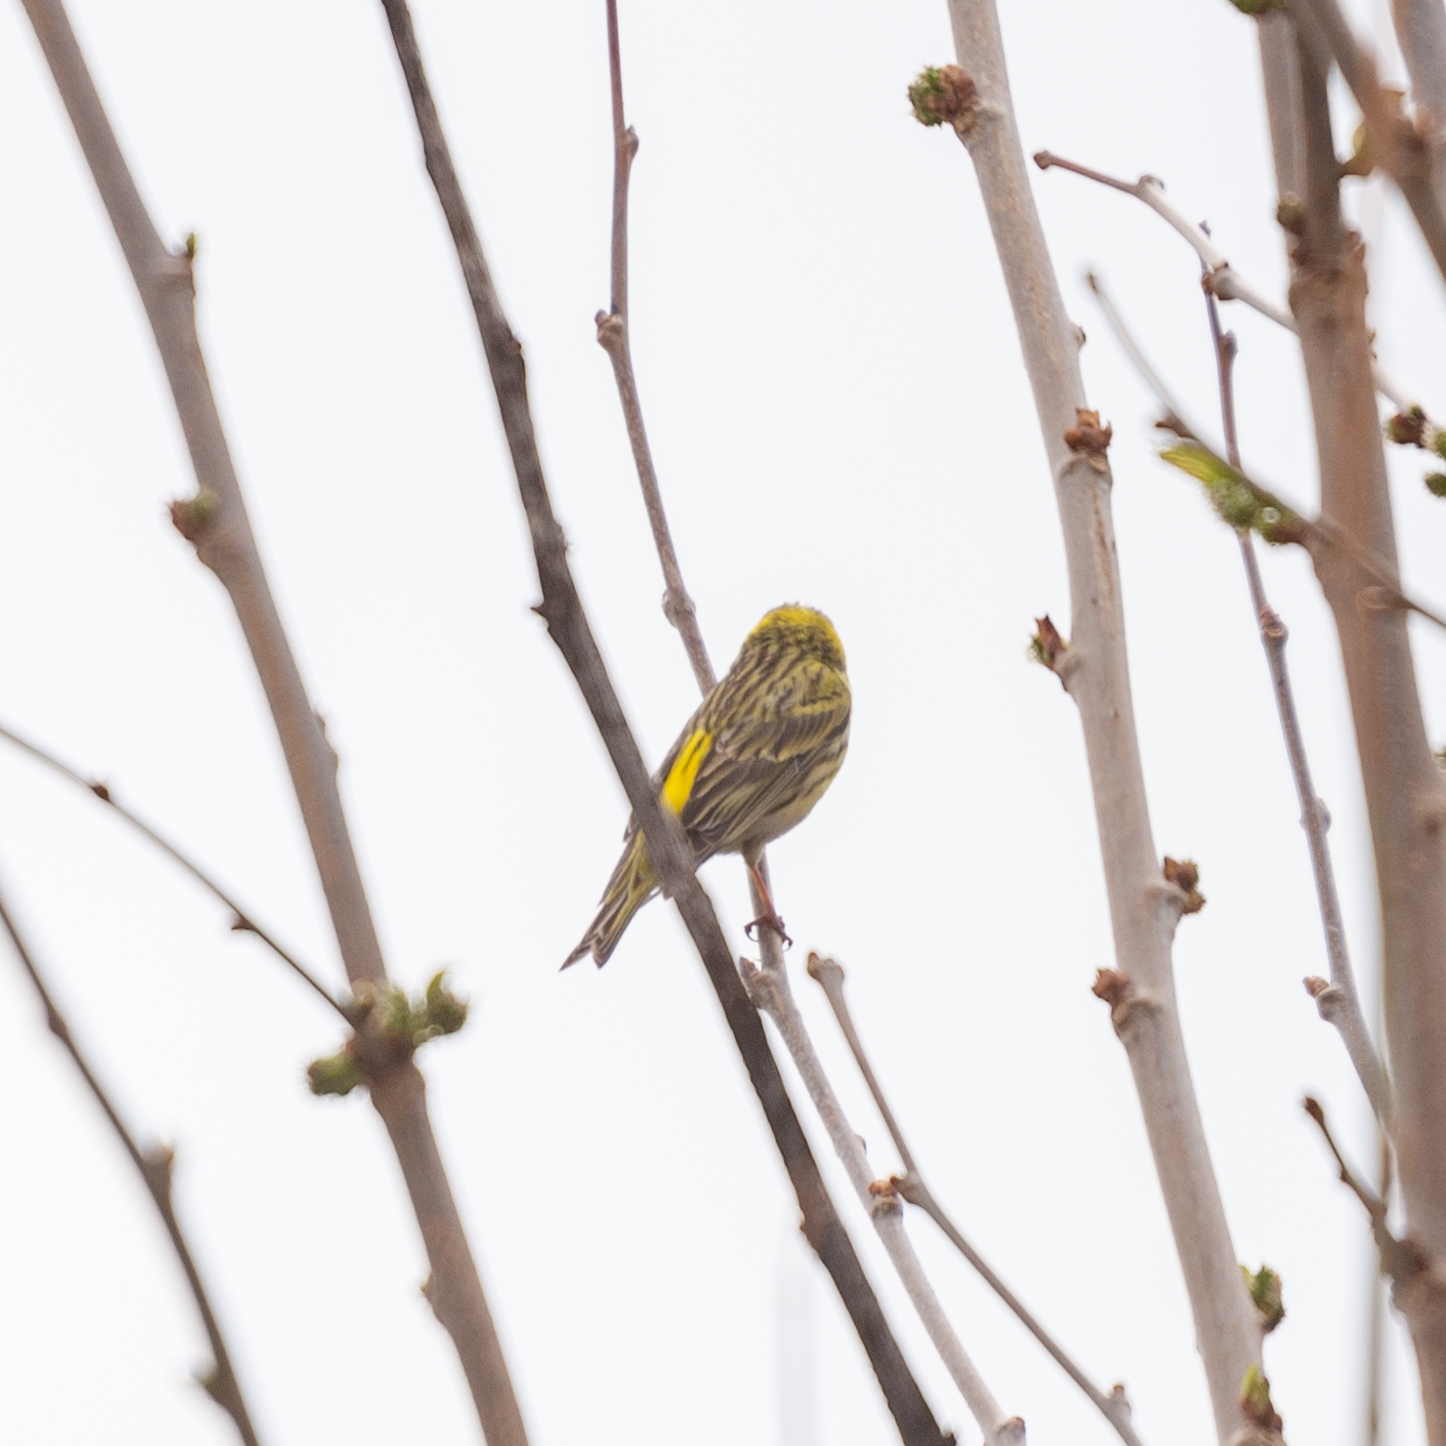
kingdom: Animalia
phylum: Chordata
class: Aves
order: Passeriformes
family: Fringillidae
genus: Serinus
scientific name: Serinus serinus
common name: European serin
